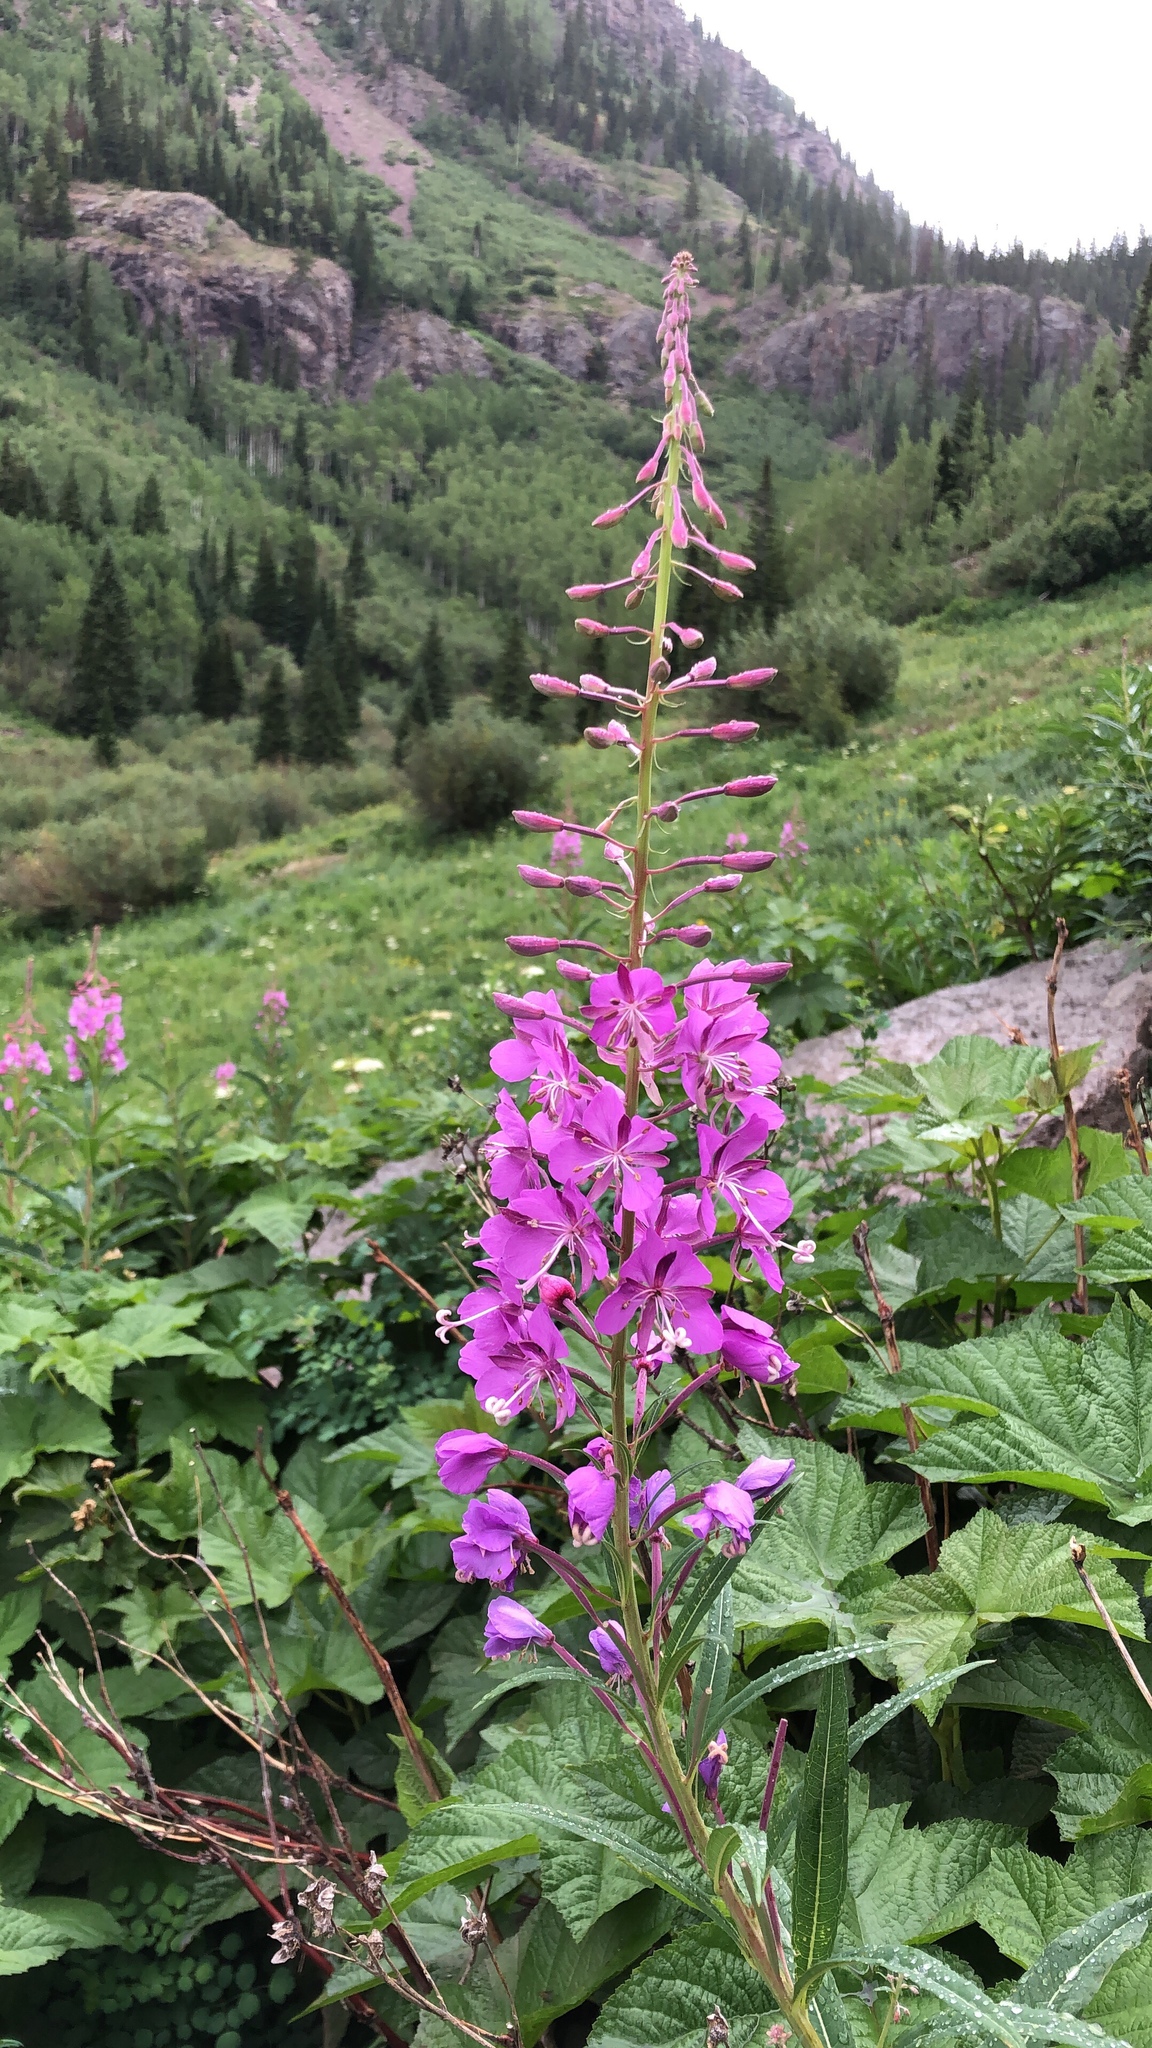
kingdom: Plantae
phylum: Tracheophyta
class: Magnoliopsida
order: Myrtales
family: Onagraceae
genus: Chamaenerion
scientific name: Chamaenerion angustifolium
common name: Fireweed
